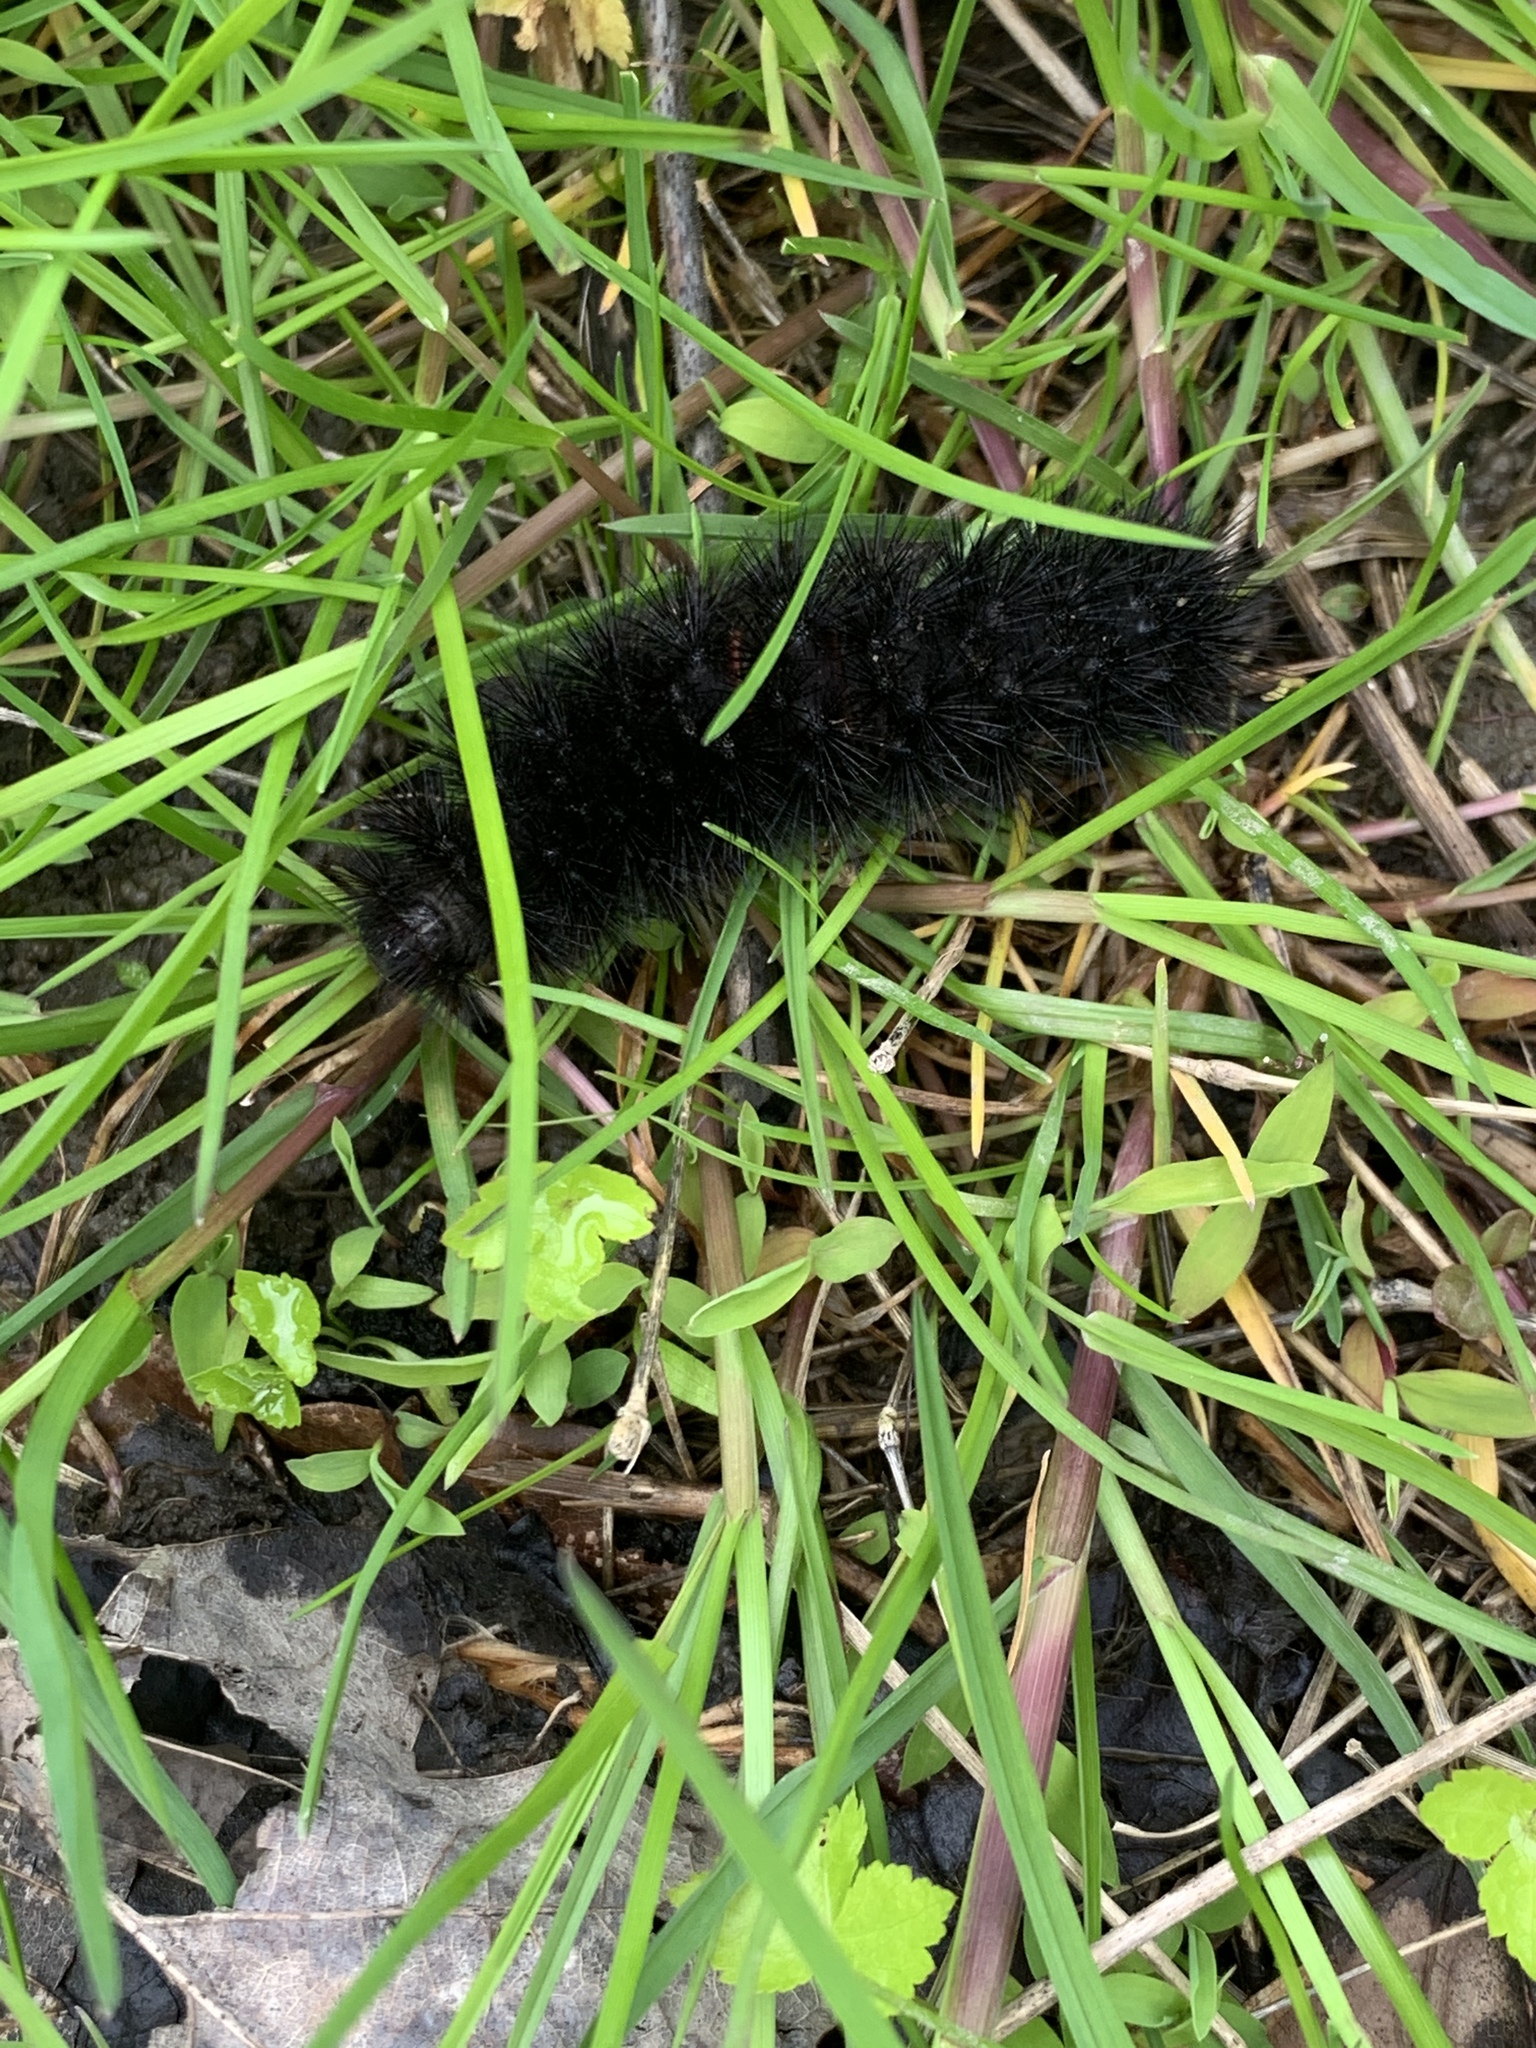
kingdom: Animalia
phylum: Arthropoda
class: Insecta
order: Lepidoptera
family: Erebidae
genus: Hypercompe
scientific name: Hypercompe scribonia
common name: Giant leopard moth
